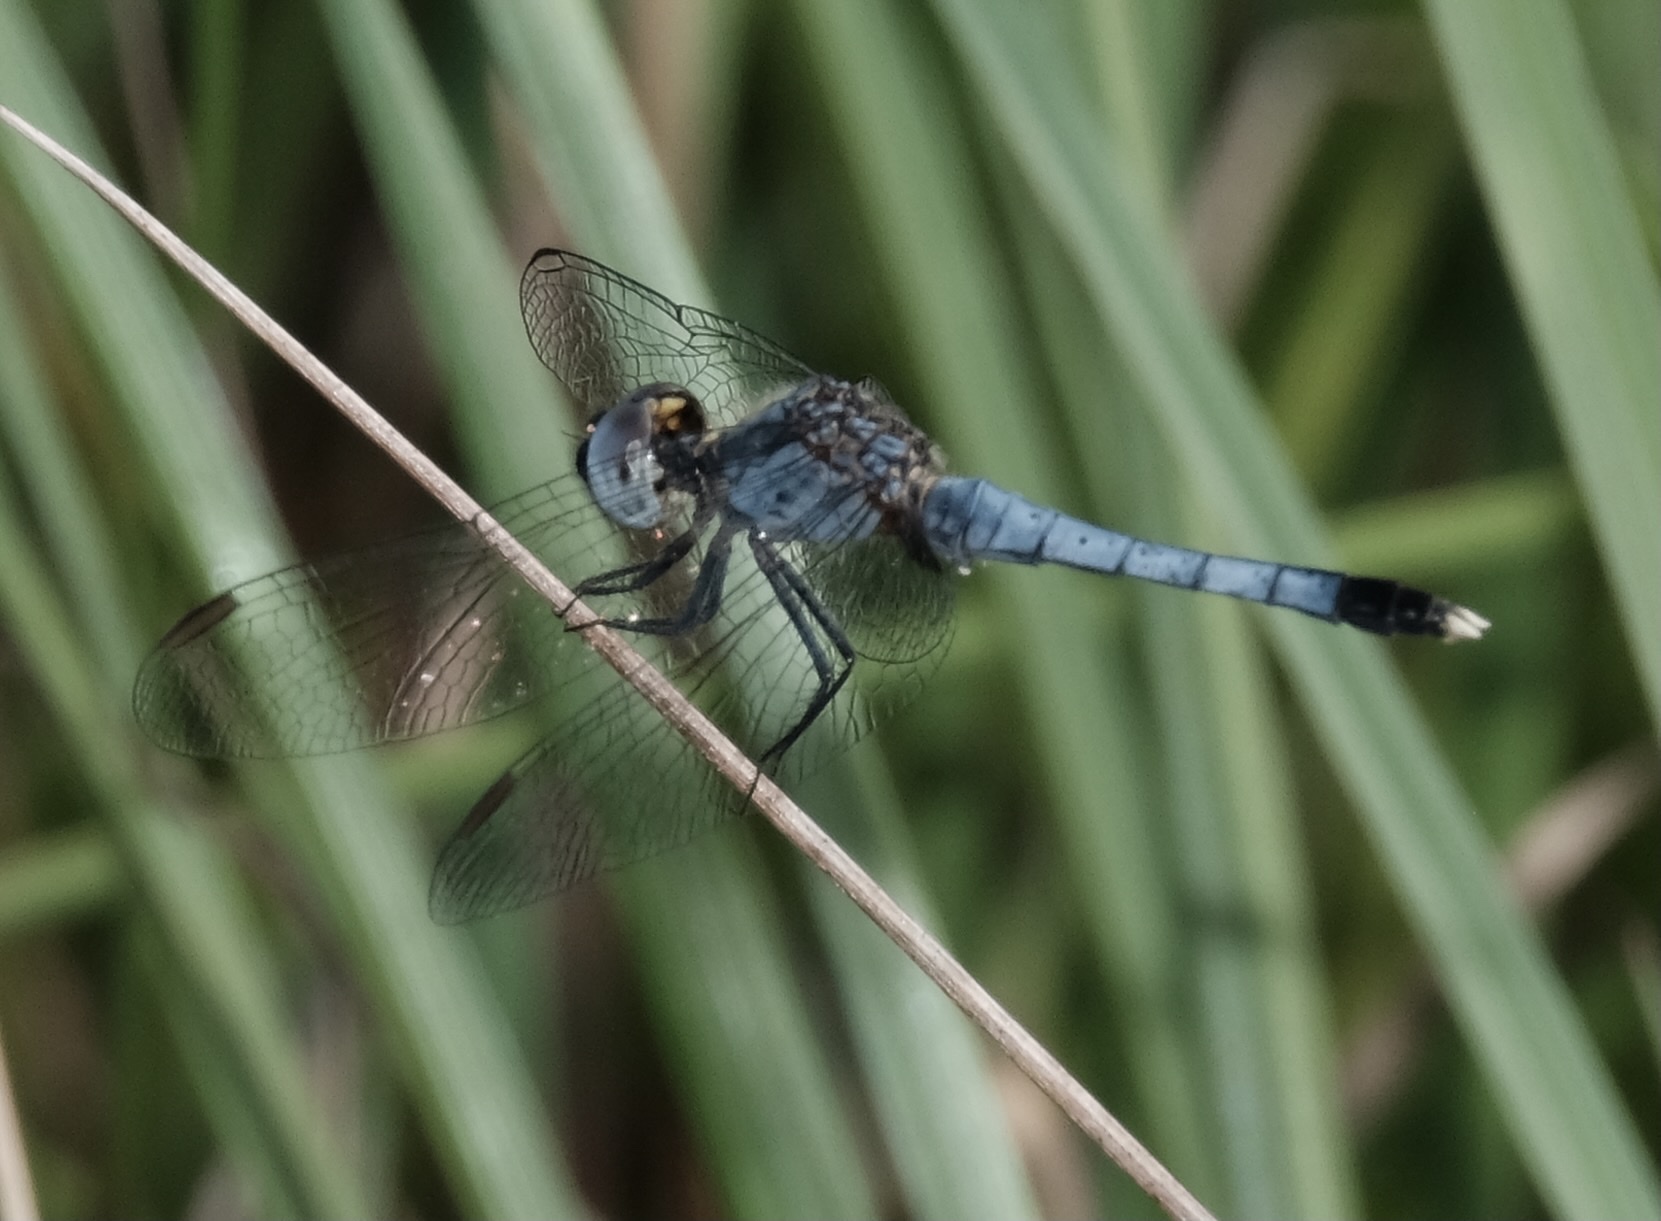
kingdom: Animalia
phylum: Arthropoda
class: Insecta
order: Odonata
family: Libellulidae
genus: Erythrodiplax
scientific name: Erythrodiplax minuscula
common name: Little blue dragonlet
